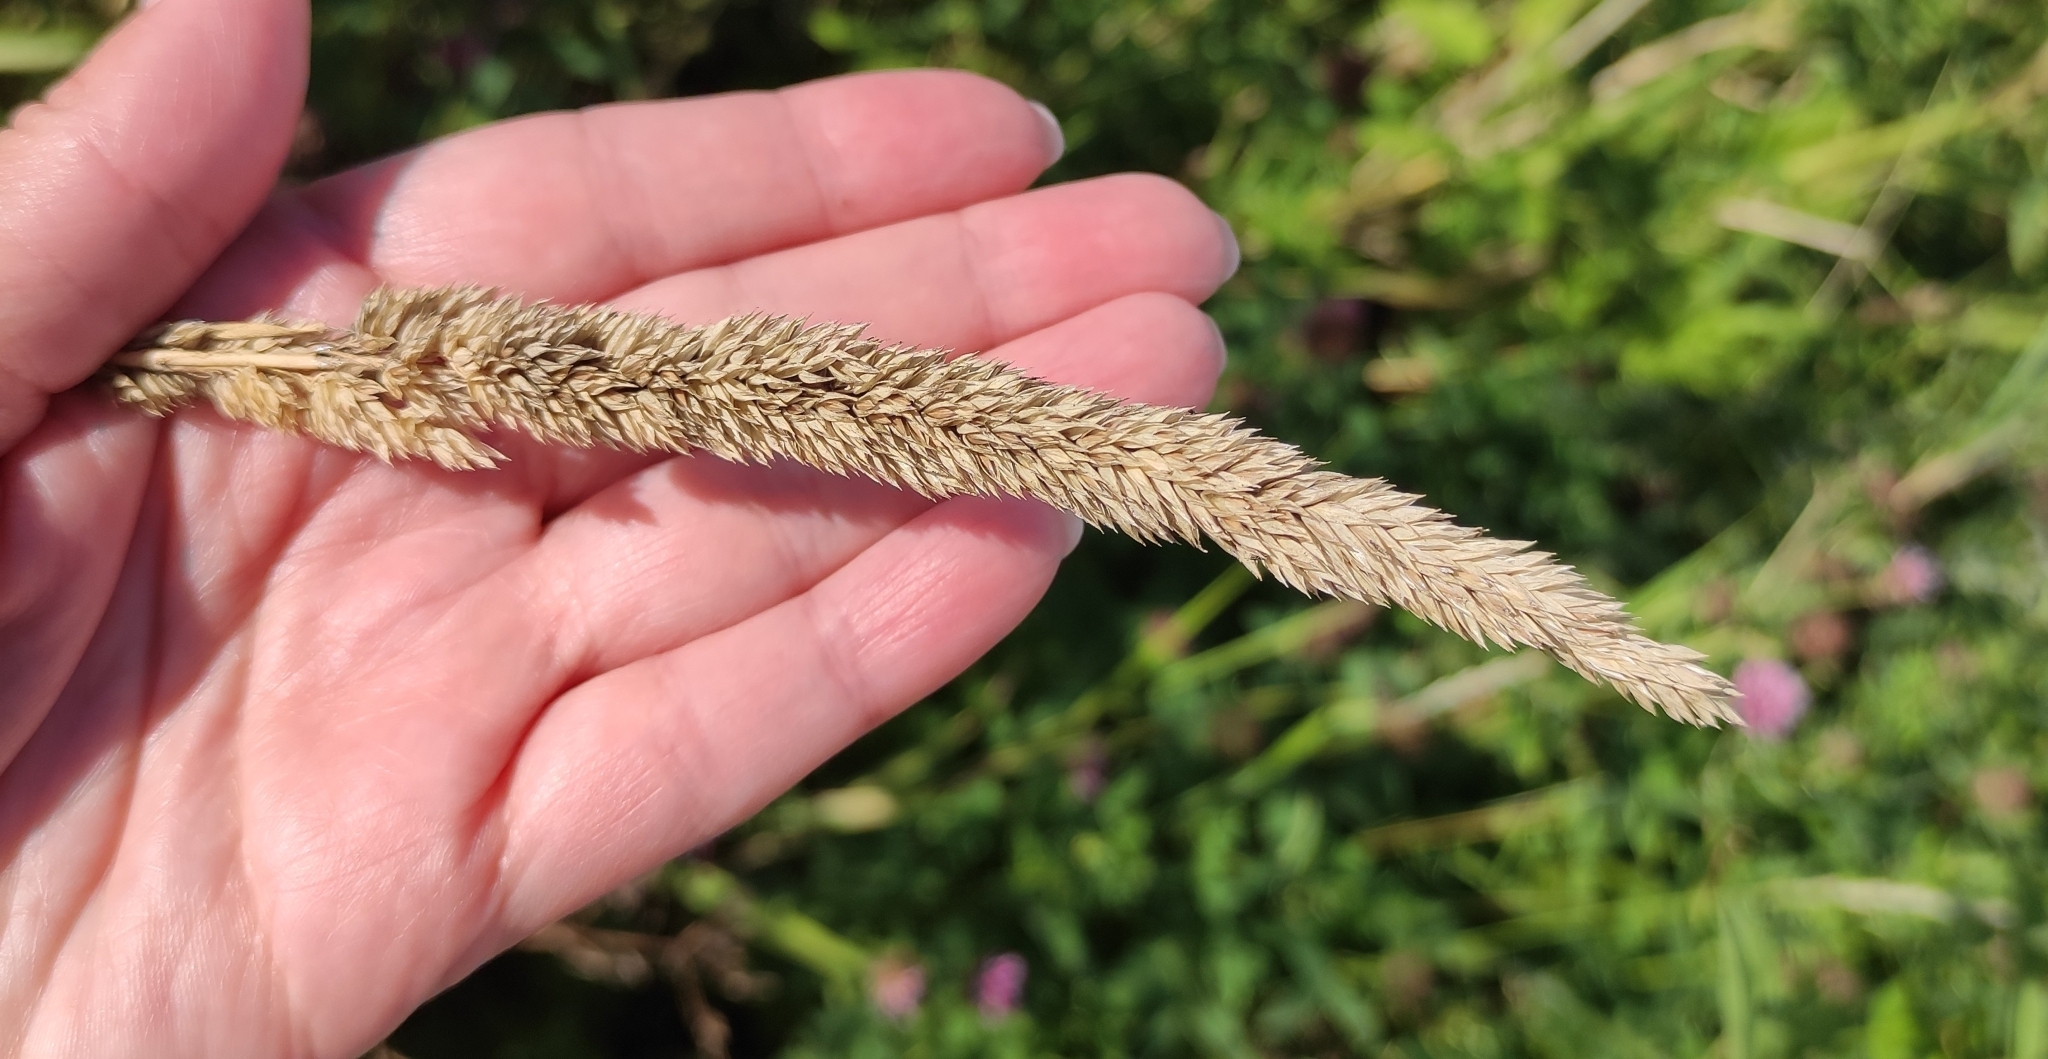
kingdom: Plantae
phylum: Tracheophyta
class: Liliopsida
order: Poales
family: Poaceae
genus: Phalaris
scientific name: Phalaris arundinacea
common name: Reed canary-grass
